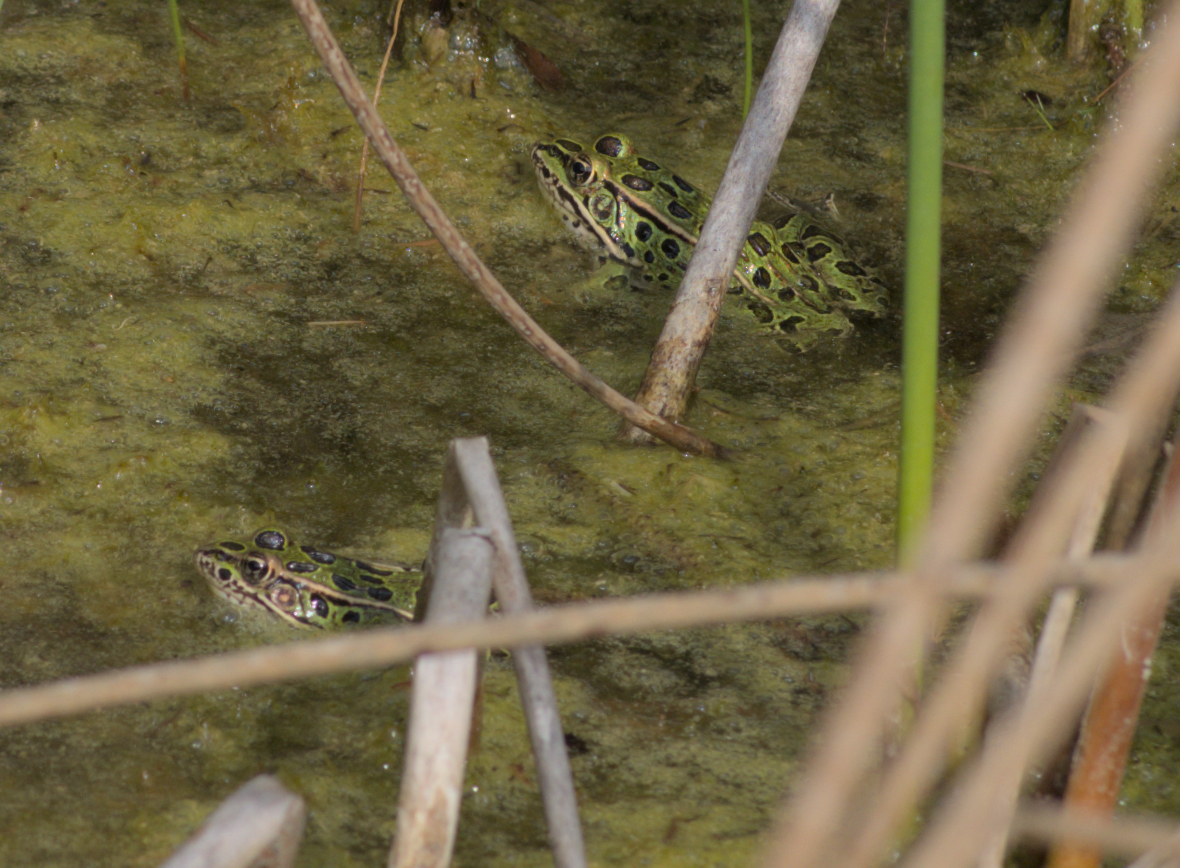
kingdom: Animalia
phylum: Chordata
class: Amphibia
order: Anura
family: Ranidae
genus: Lithobates
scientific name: Lithobates pipiens
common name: Northern leopard frog
